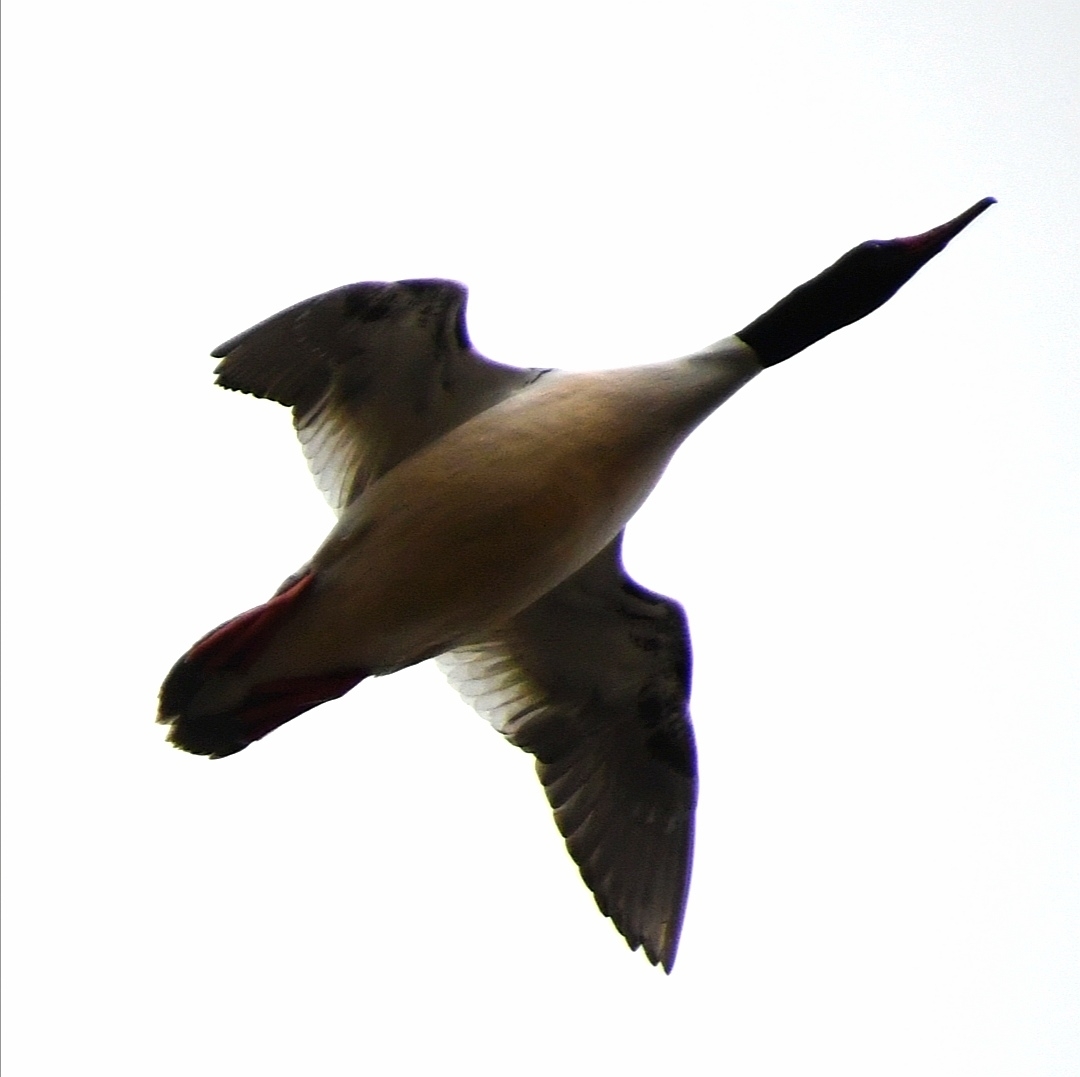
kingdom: Animalia
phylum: Chordata
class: Aves
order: Anseriformes
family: Anatidae
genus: Mergus
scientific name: Mergus merganser
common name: Common merganser
